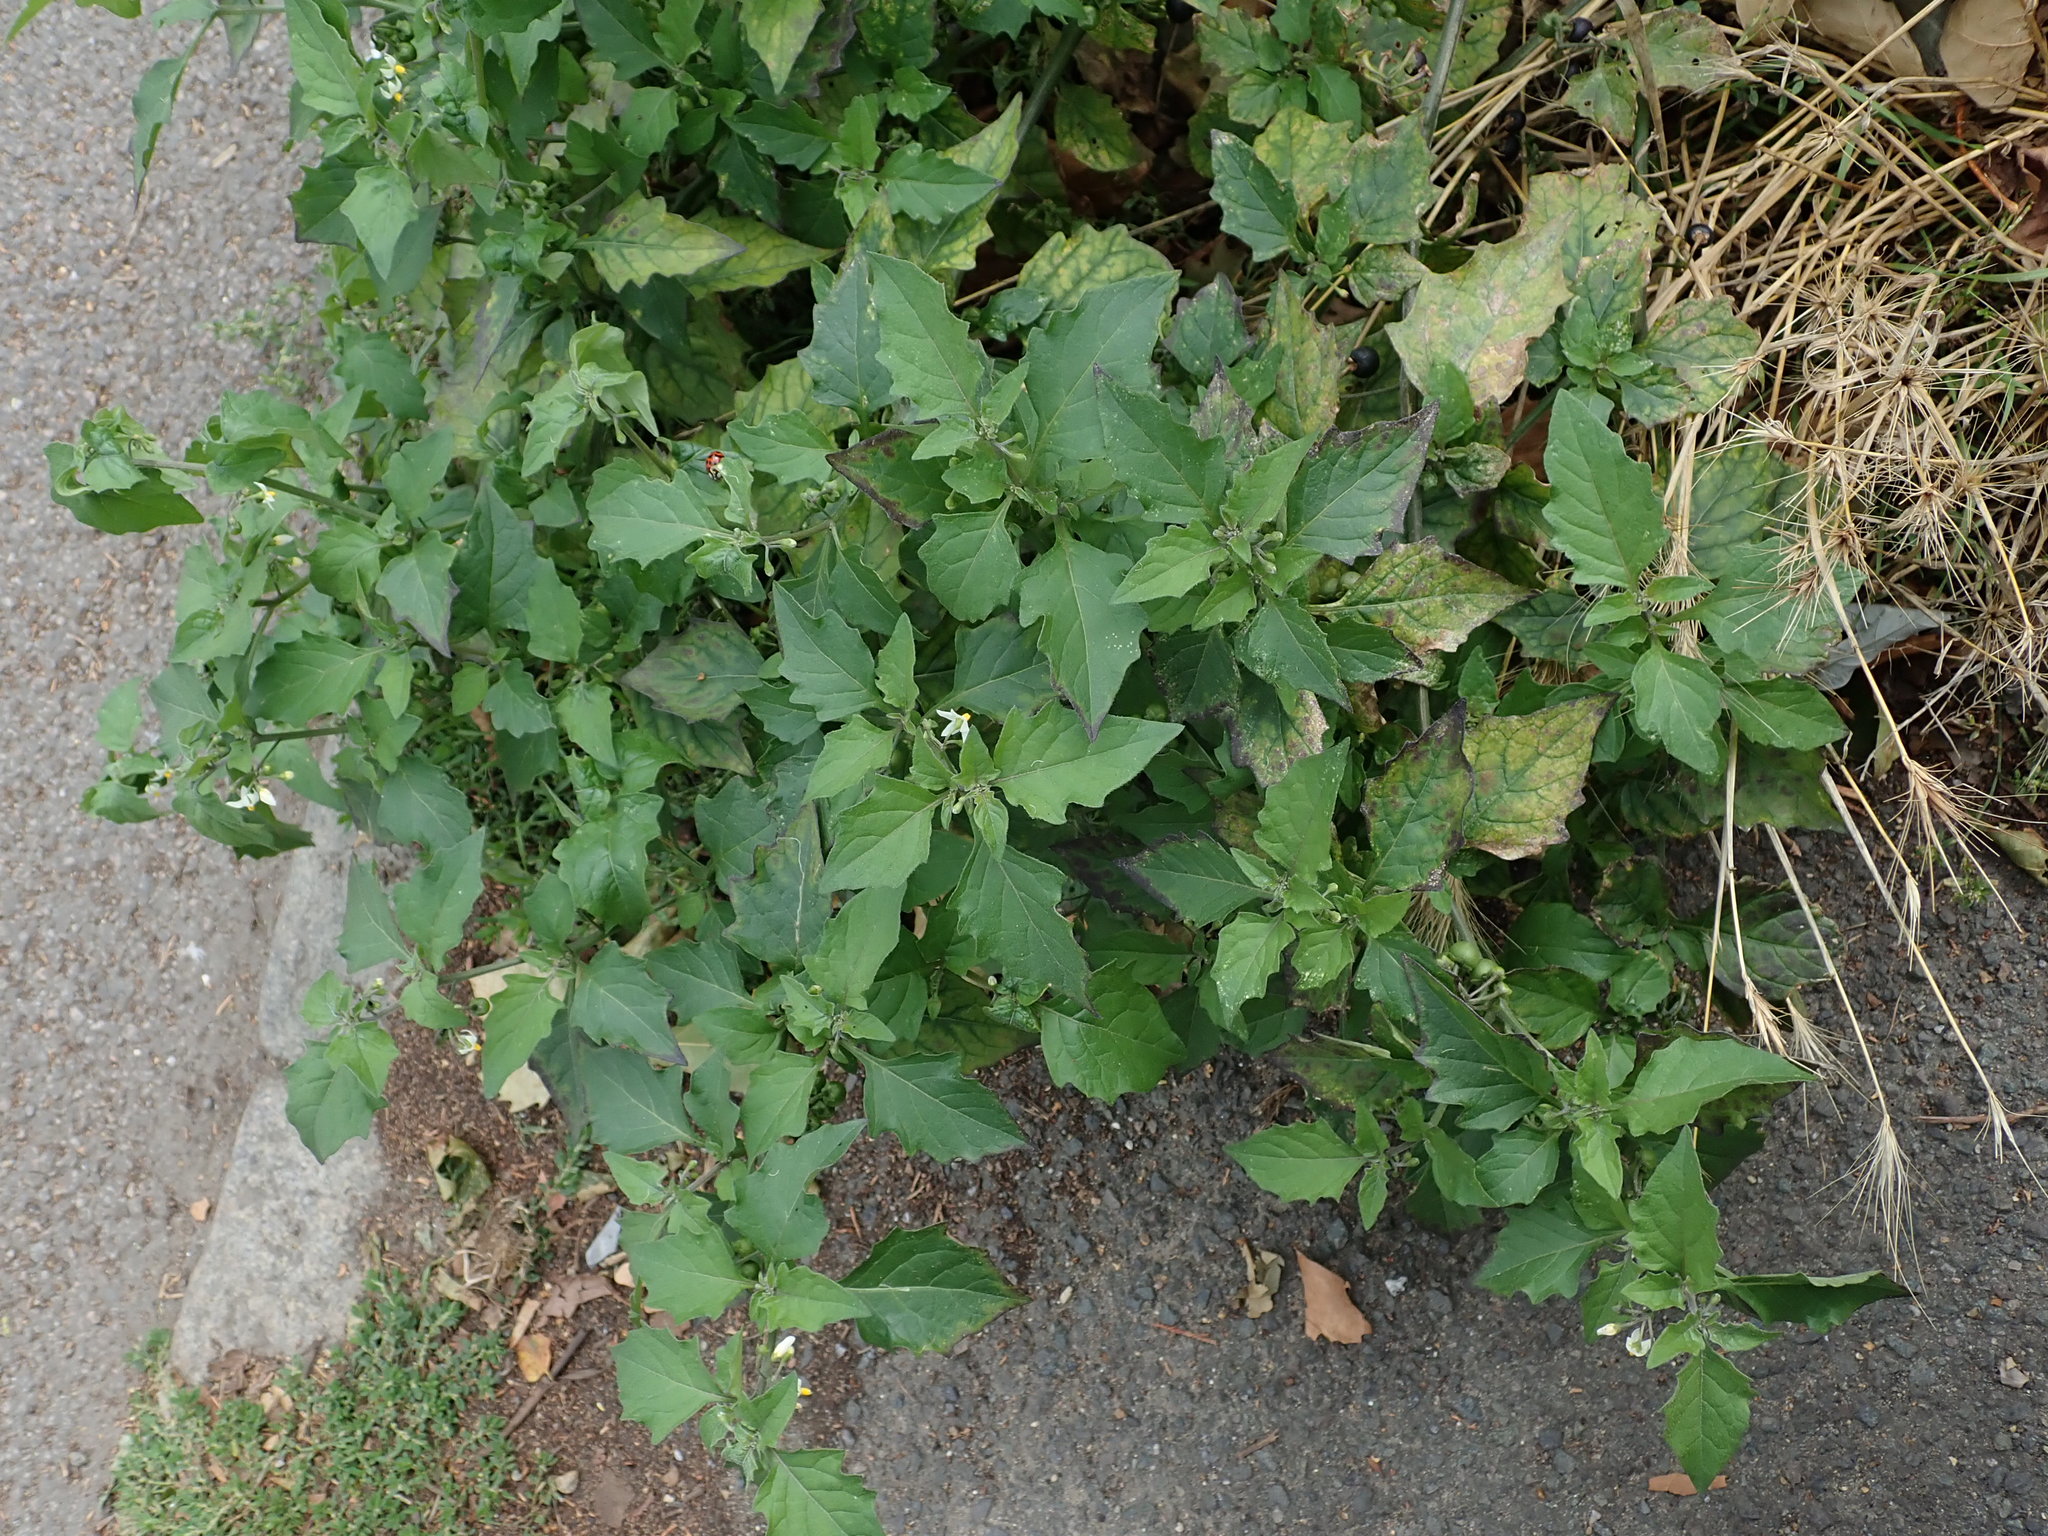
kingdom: Plantae
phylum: Tracheophyta
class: Magnoliopsida
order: Solanales
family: Solanaceae
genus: Solanum
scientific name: Solanum nigrum
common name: Black nightshade
